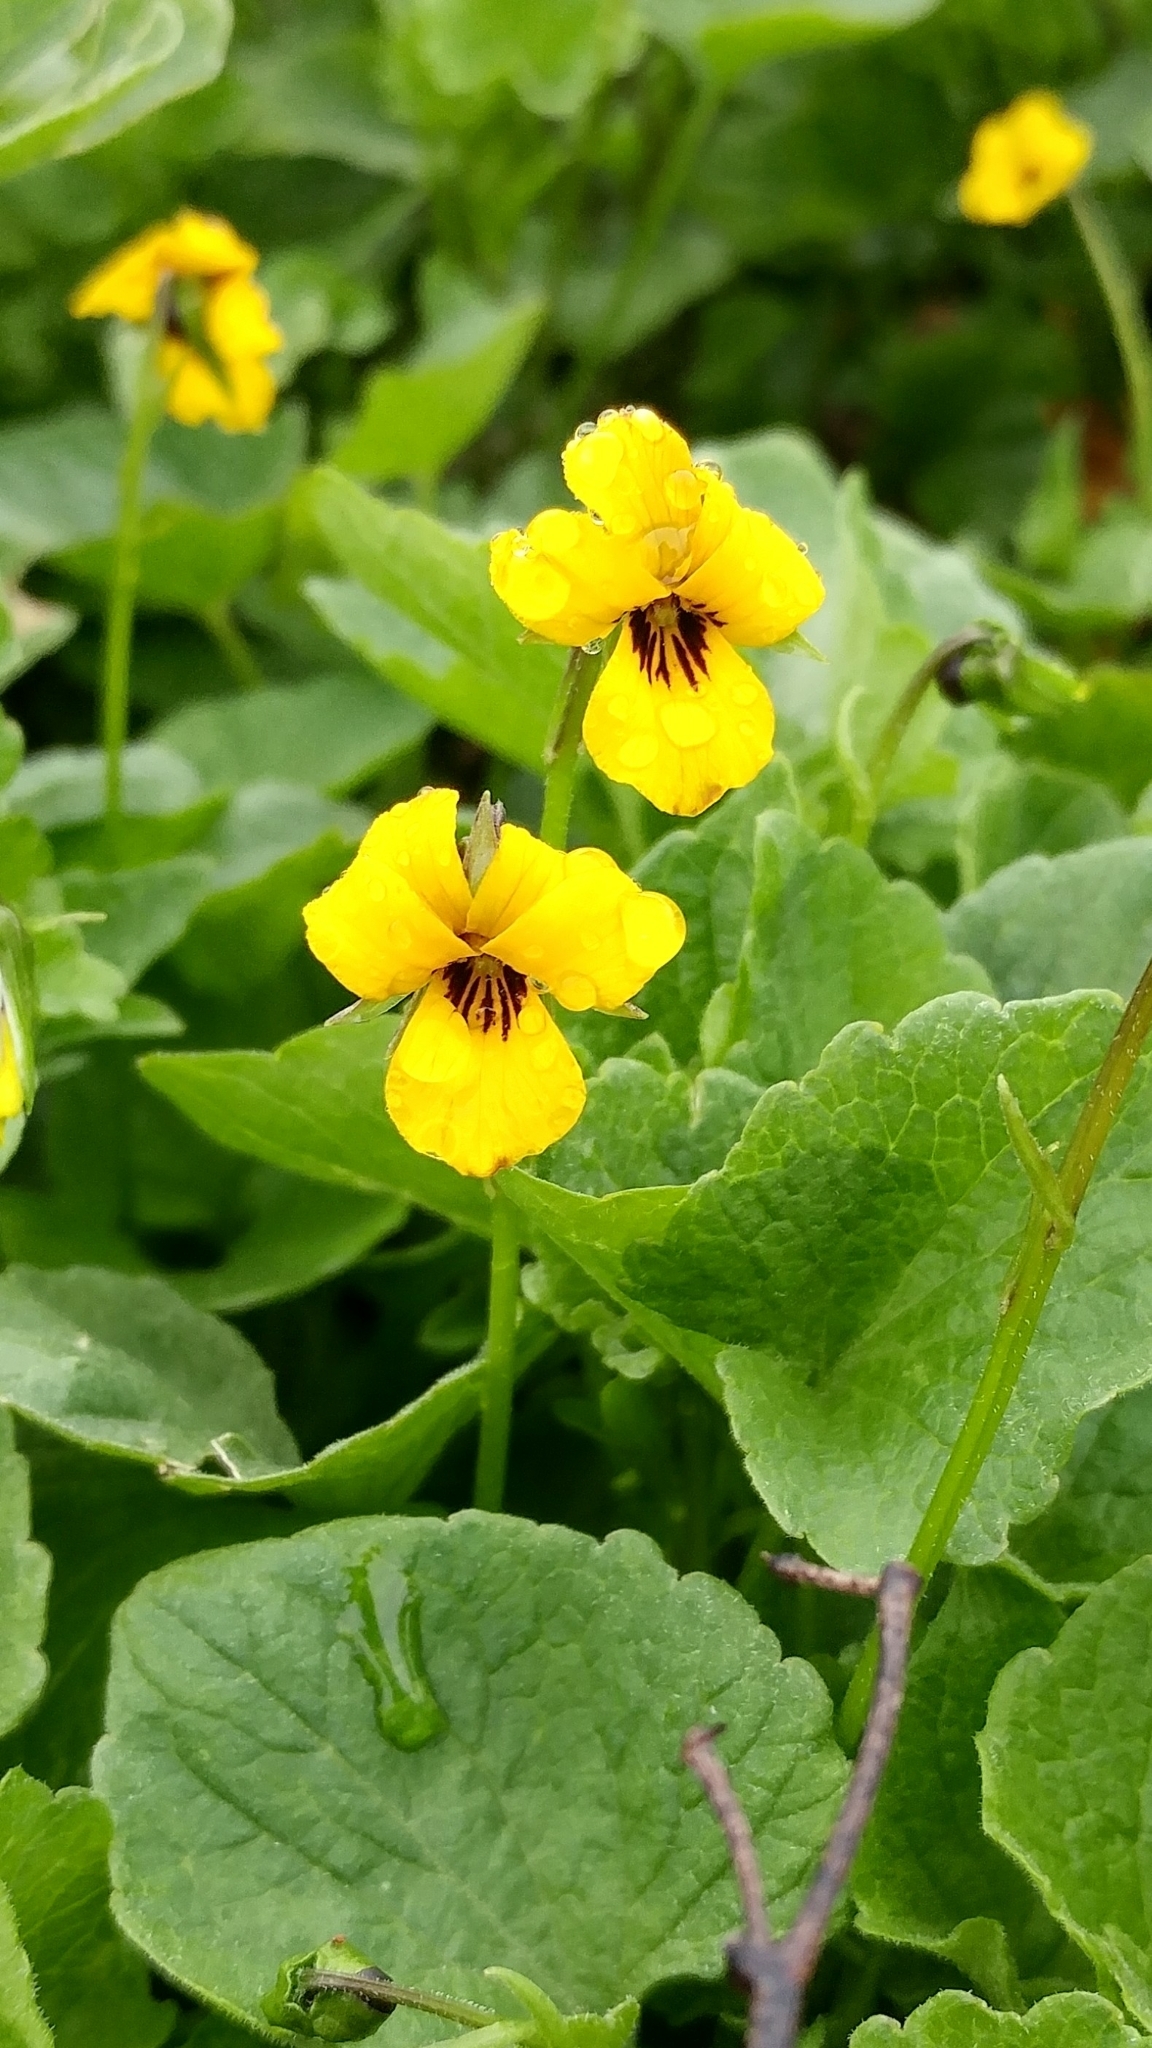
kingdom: Plantae
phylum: Tracheophyta
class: Magnoliopsida
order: Malpighiales
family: Violaceae
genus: Viola
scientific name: Viola pedunculata
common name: California golden violet
